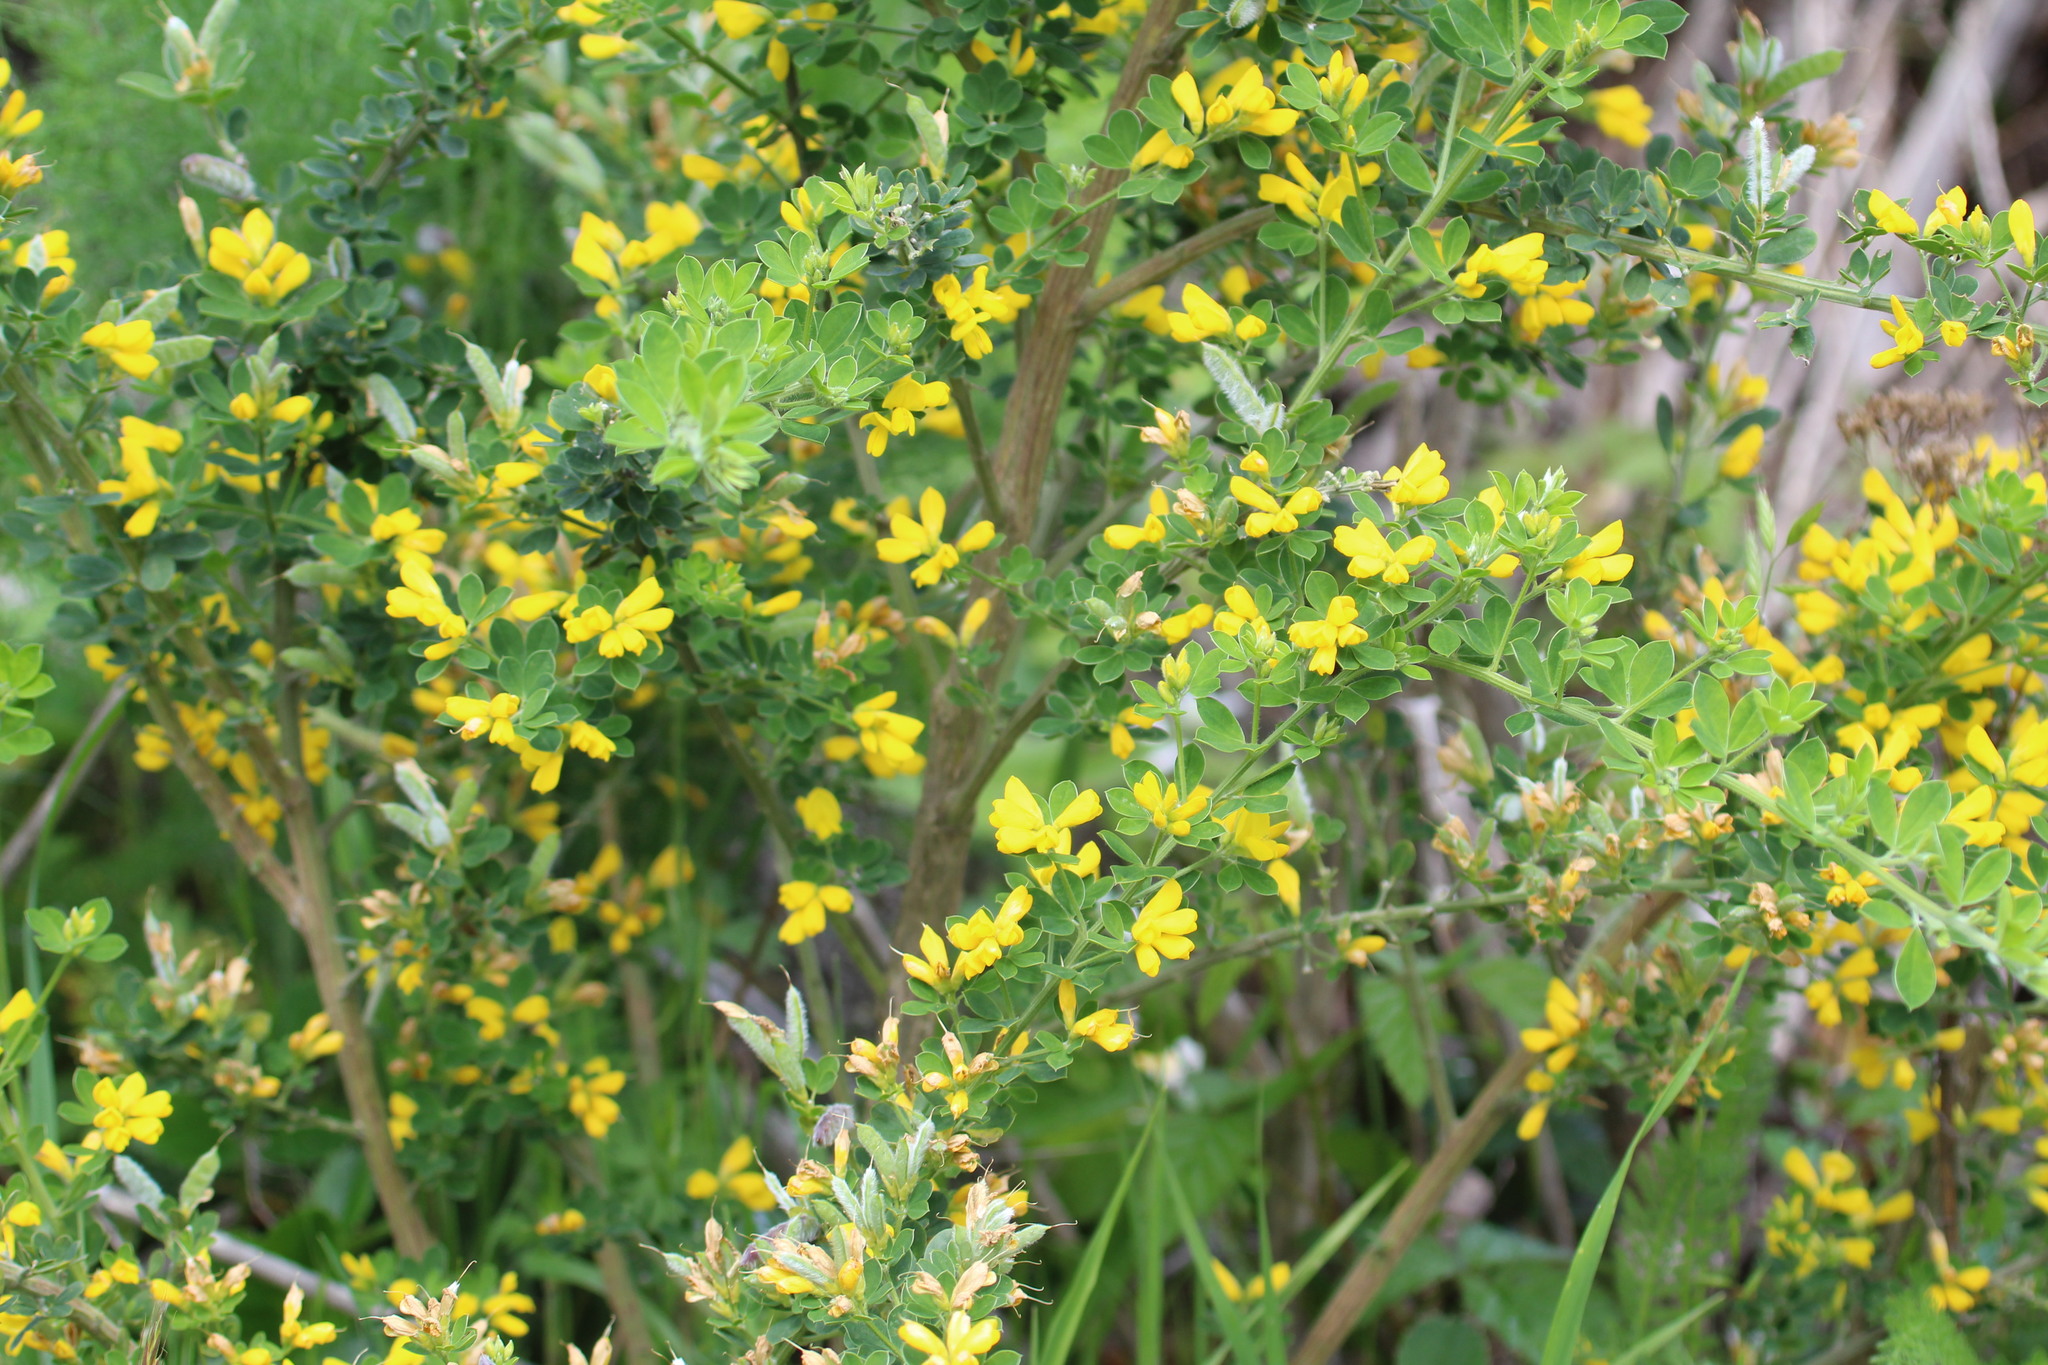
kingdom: Plantae
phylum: Tracheophyta
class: Magnoliopsida
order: Fabales
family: Fabaceae
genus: Genista
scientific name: Genista monspessulana
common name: Montpellier broom
